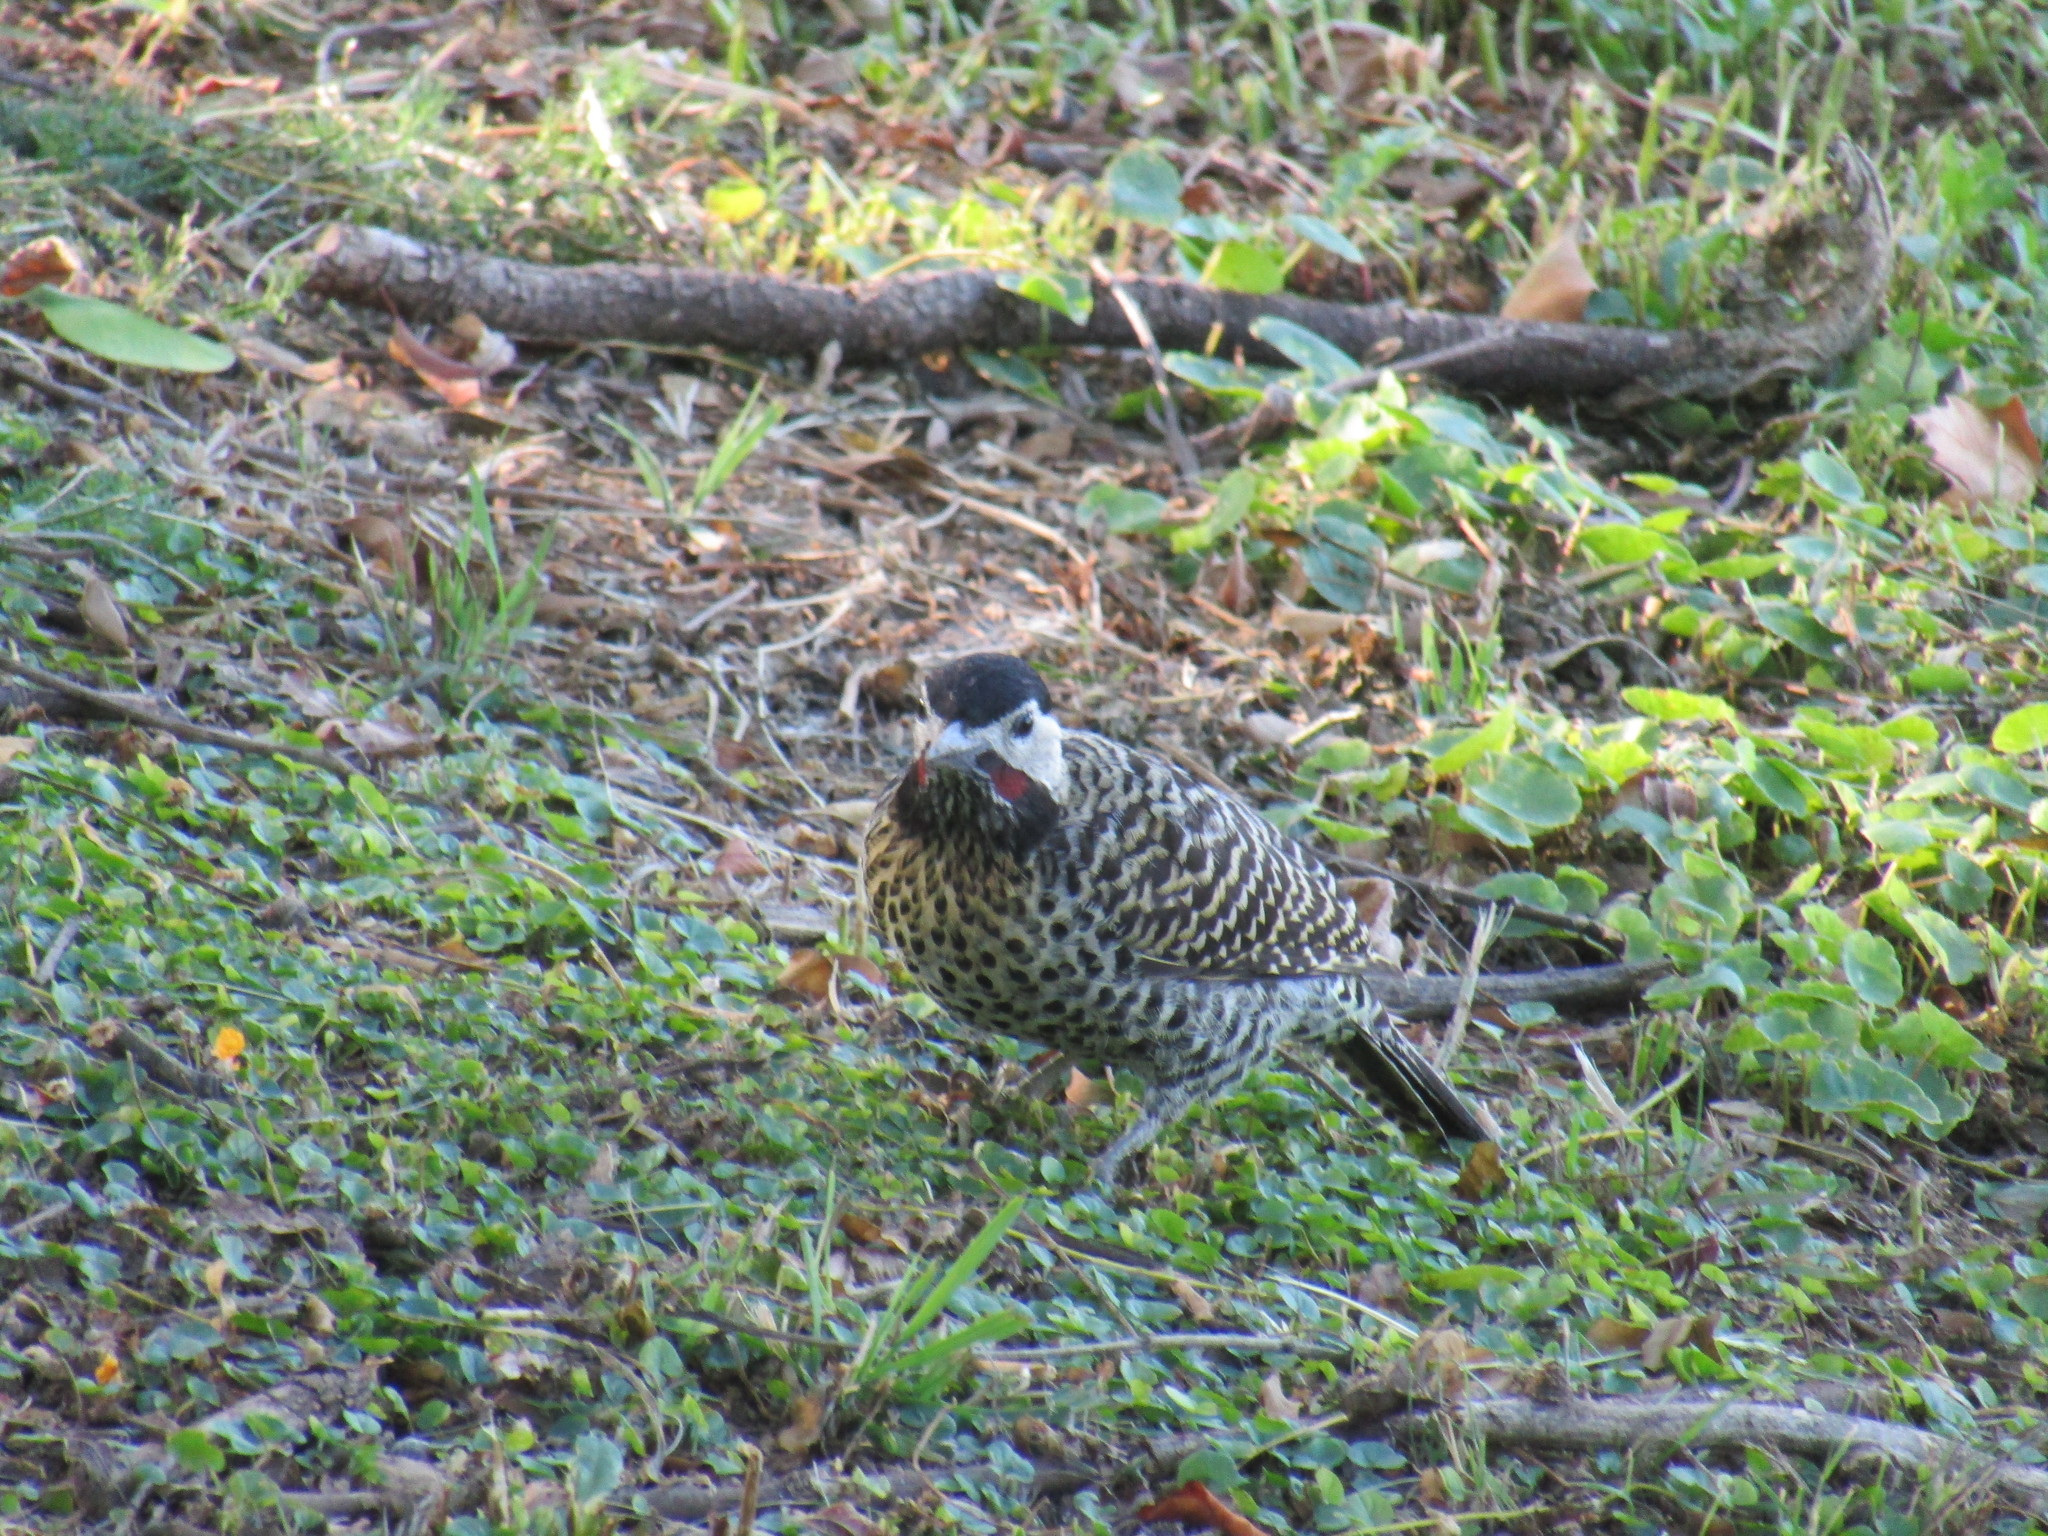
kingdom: Animalia
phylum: Chordata
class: Aves
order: Piciformes
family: Picidae
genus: Colaptes
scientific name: Colaptes melanochloros
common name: Green-barred woodpecker
